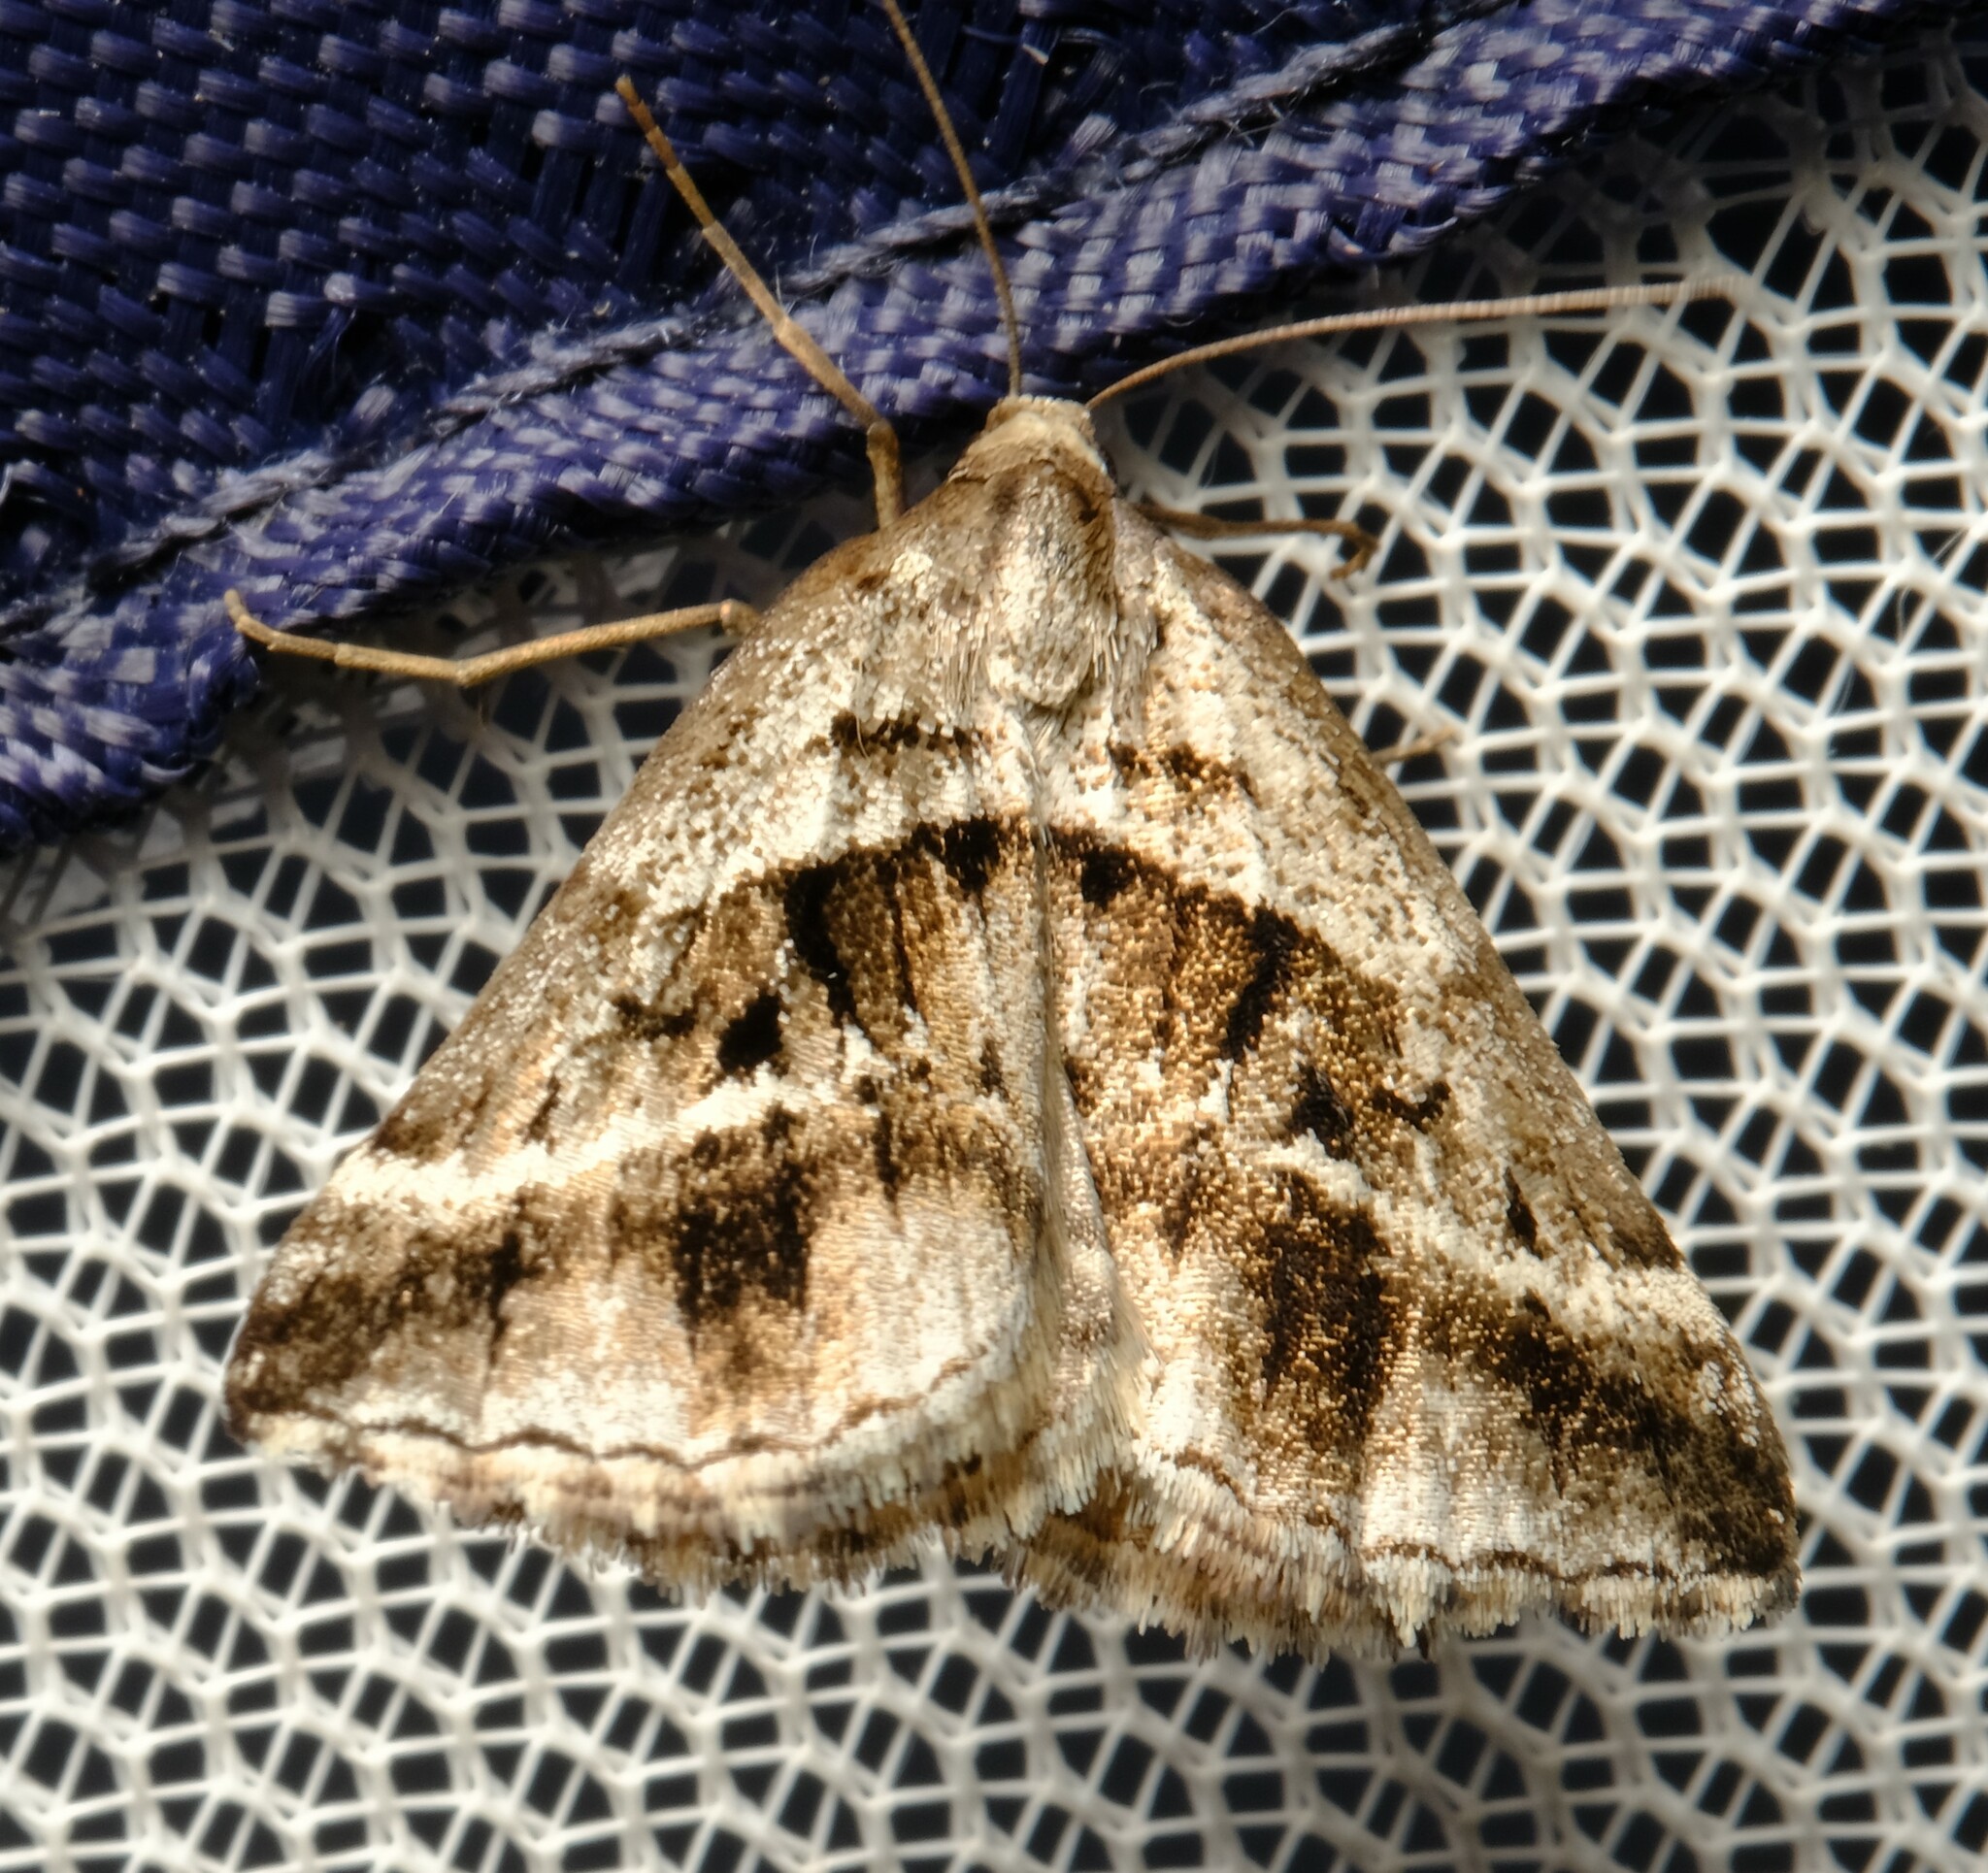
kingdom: Animalia
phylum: Arthropoda
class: Insecta
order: Lepidoptera
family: Geometridae
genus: Dichromodes
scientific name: Dichromodes stilbiata
